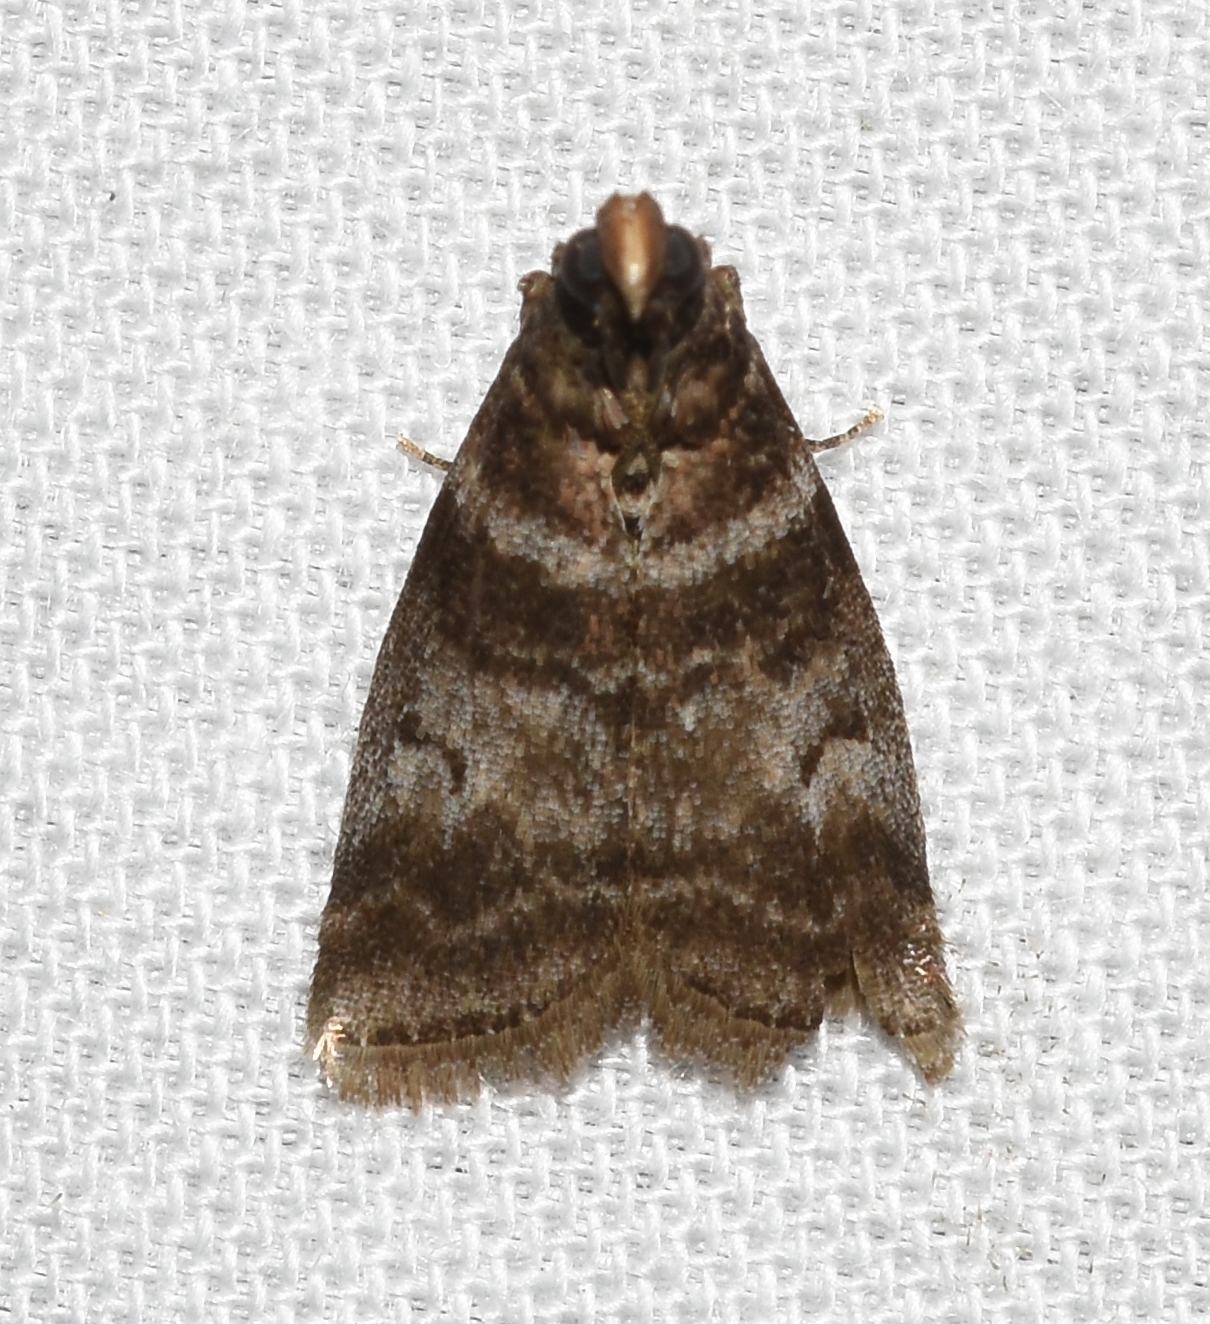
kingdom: Animalia
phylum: Arthropoda
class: Insecta
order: Lepidoptera
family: Pyralidae
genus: Sciota
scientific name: Sciota uvinella
